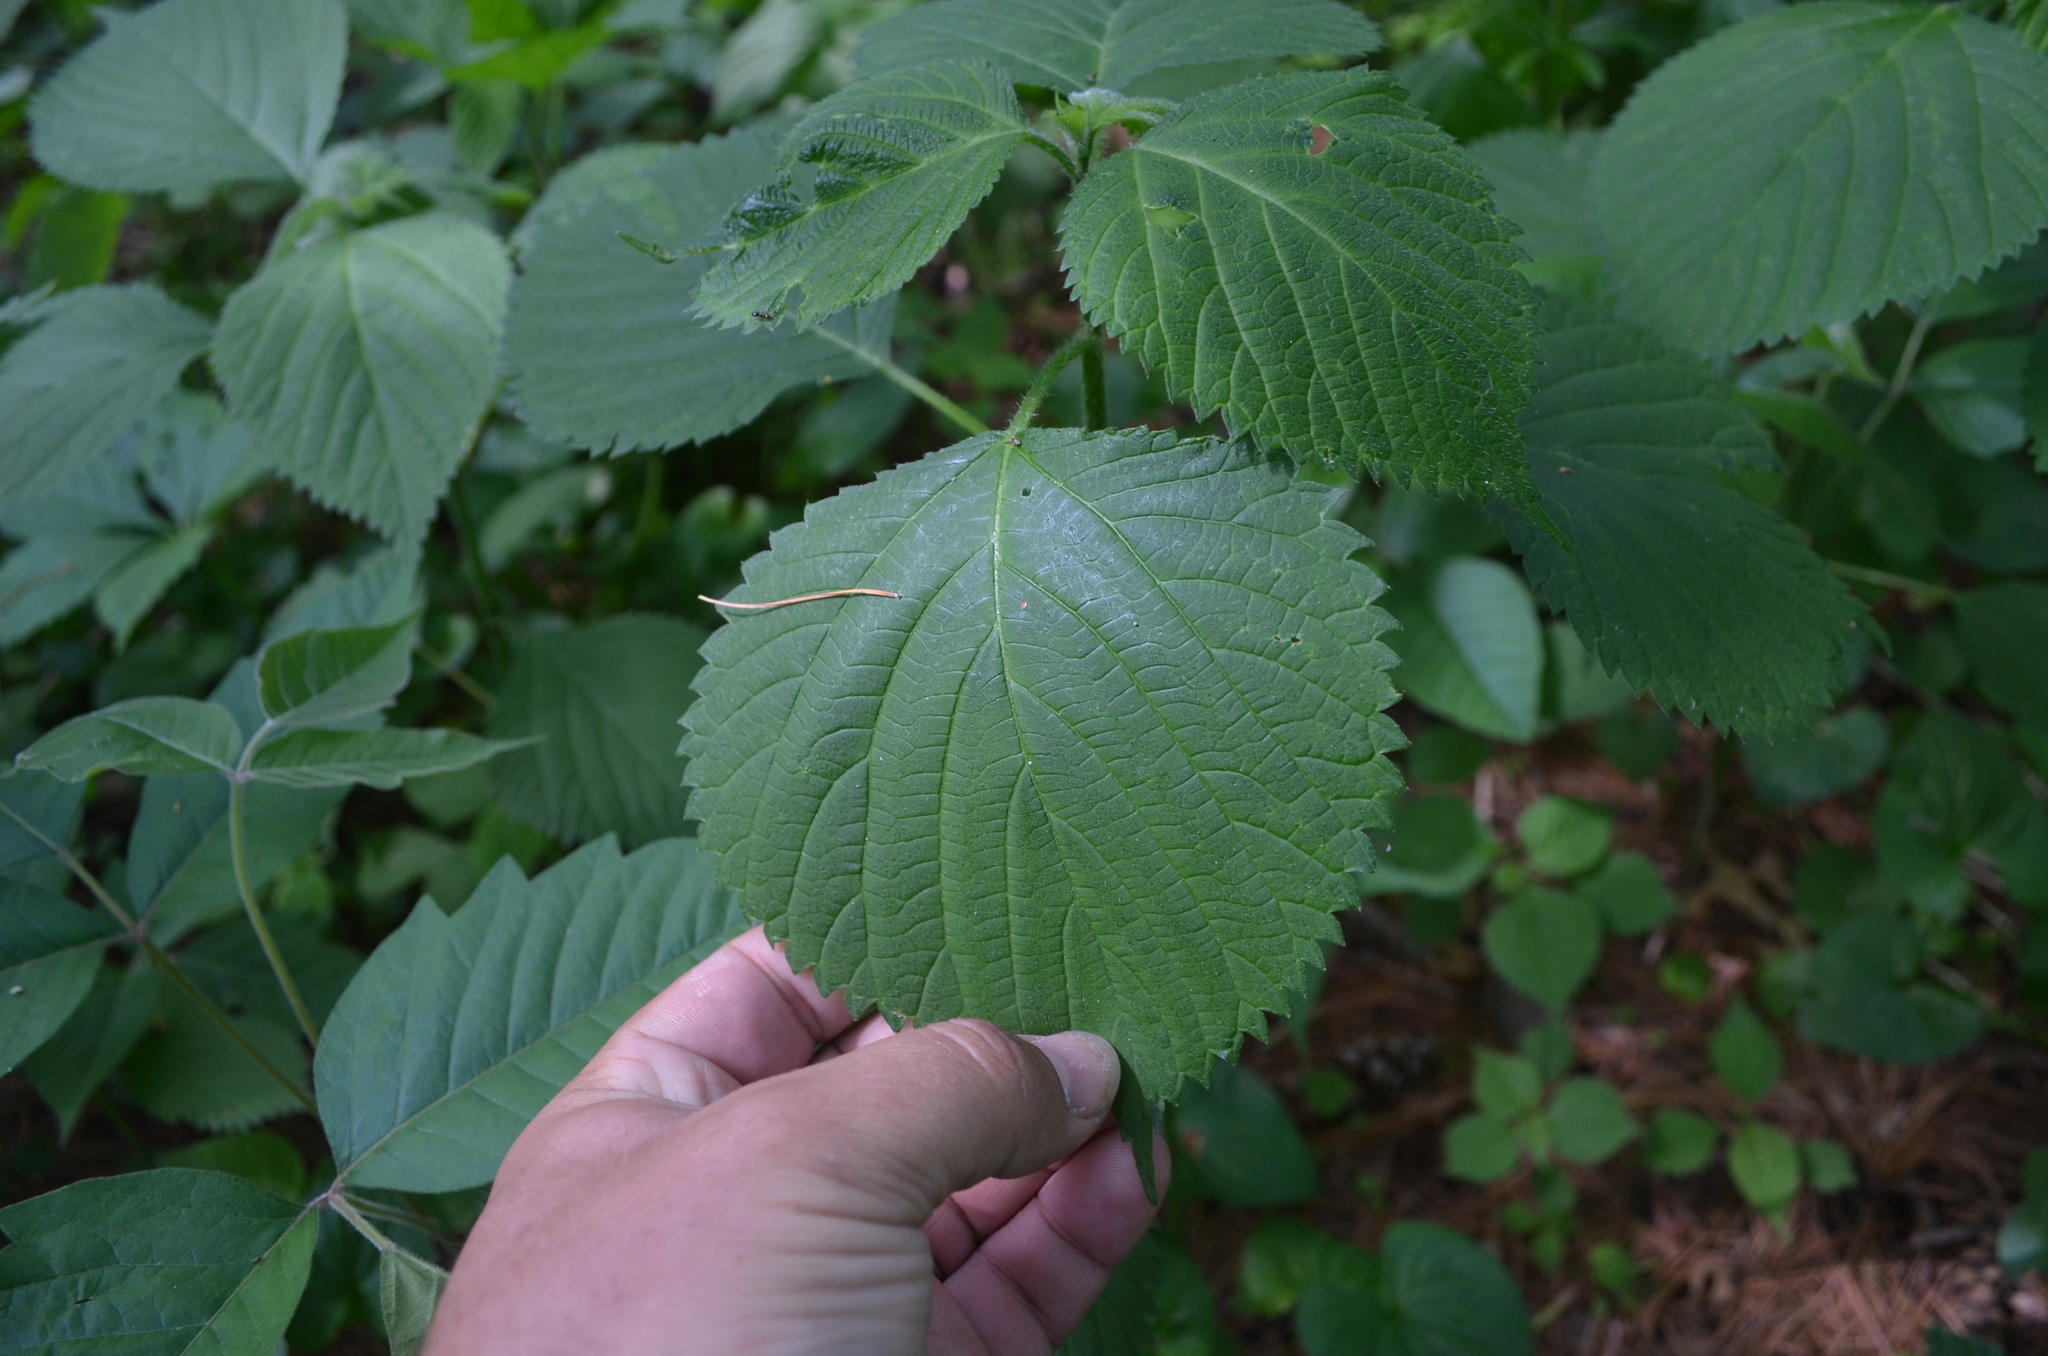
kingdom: Plantae
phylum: Tracheophyta
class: Magnoliopsida
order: Rosales
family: Urticaceae
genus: Laportea
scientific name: Laportea canadensis
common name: Canada nettle
